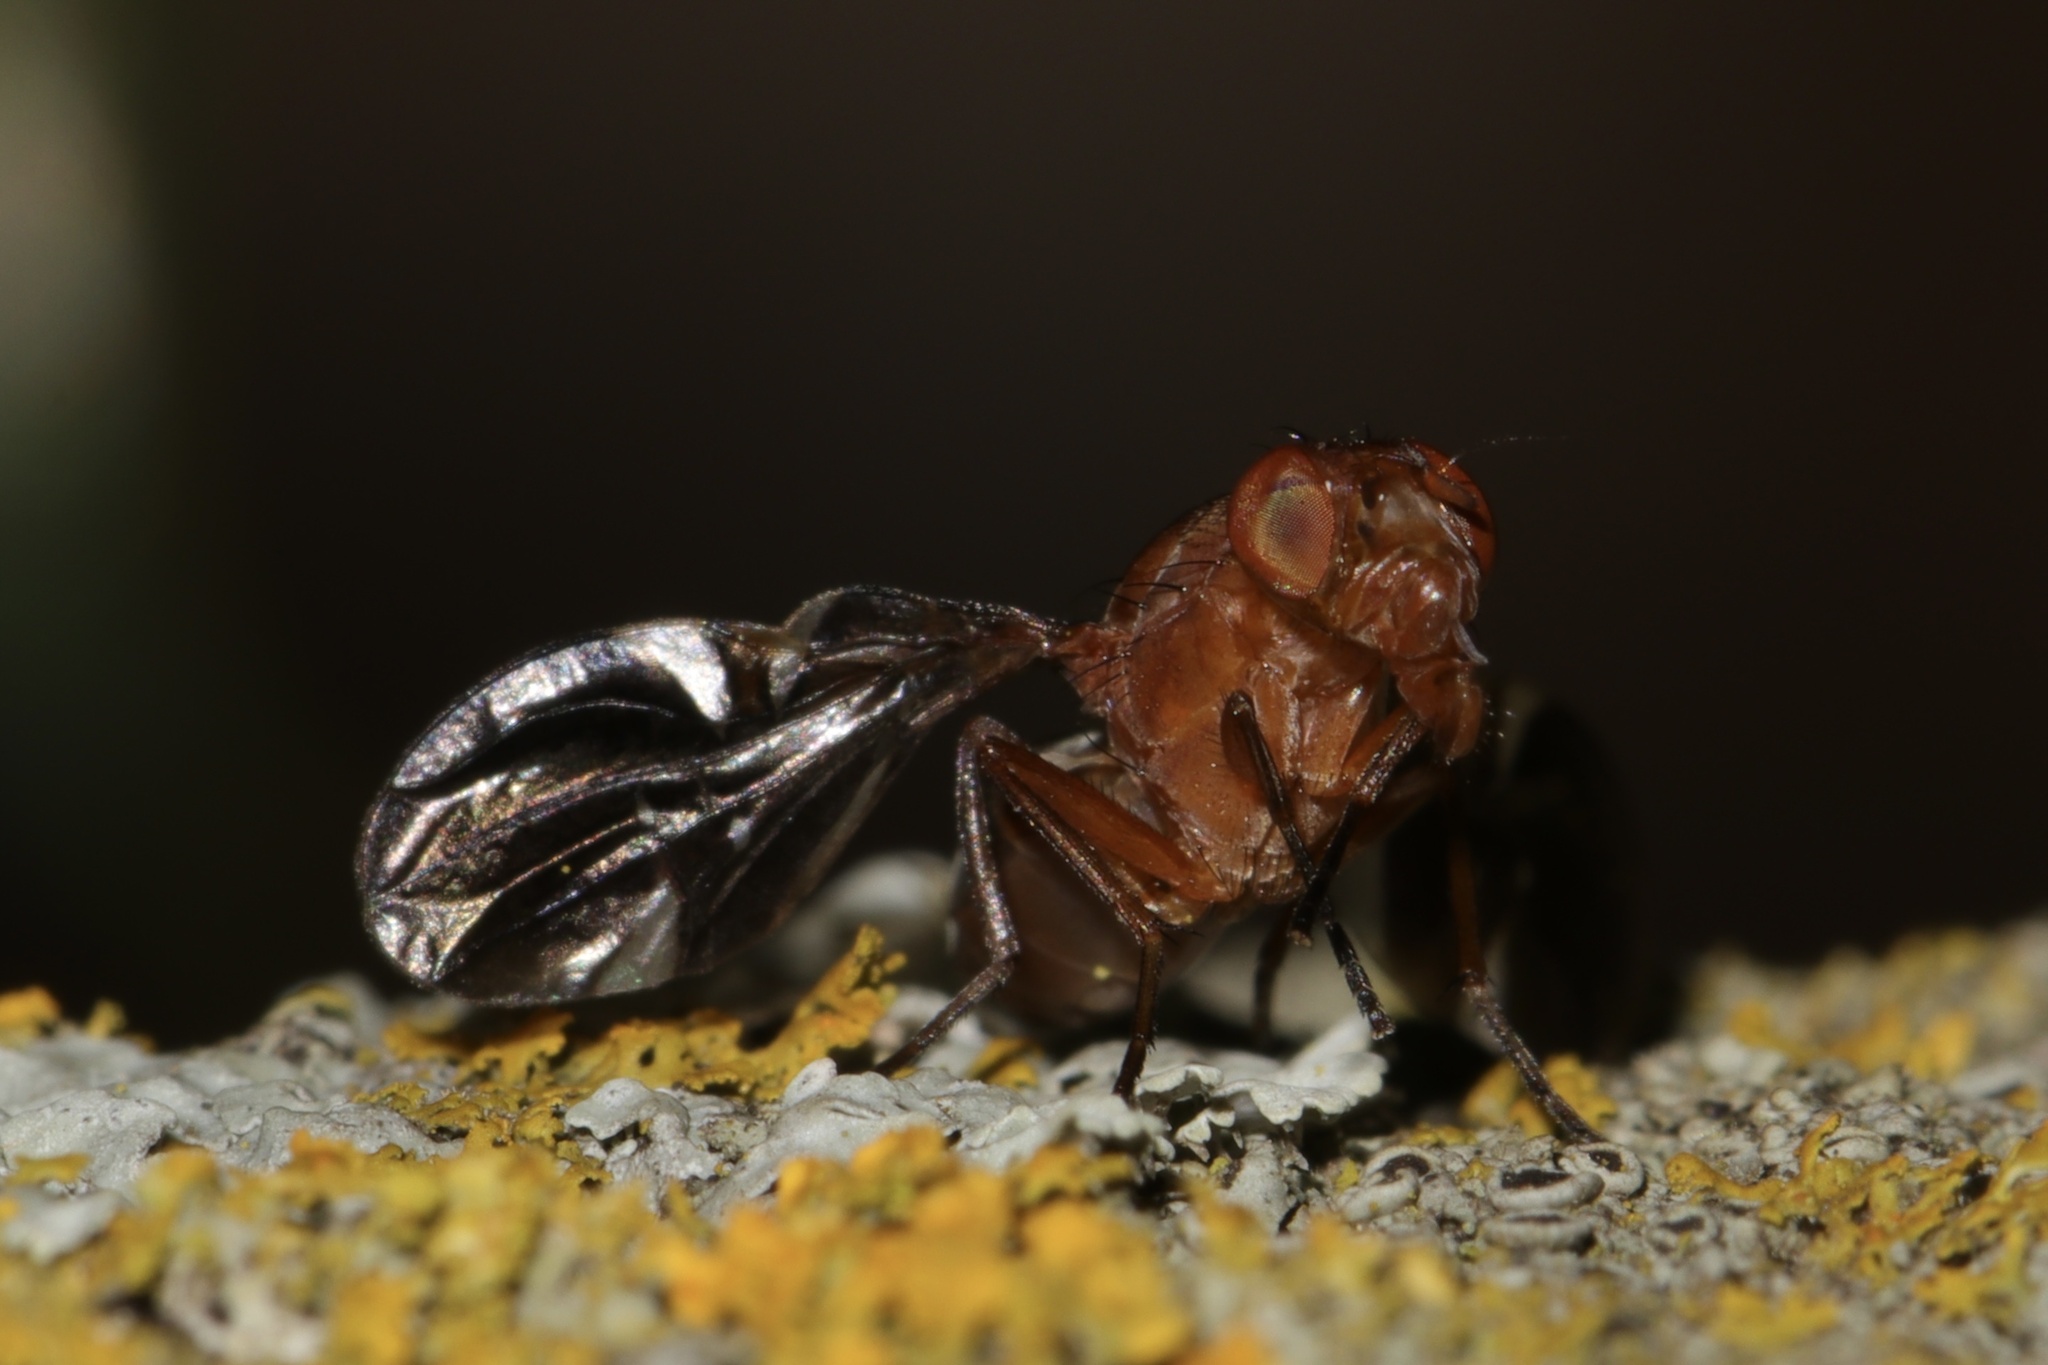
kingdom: Animalia
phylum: Arthropoda
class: Insecta
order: Diptera
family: Ulidiidae
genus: Delphinia
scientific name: Delphinia picta
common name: Common picture-winged fly
